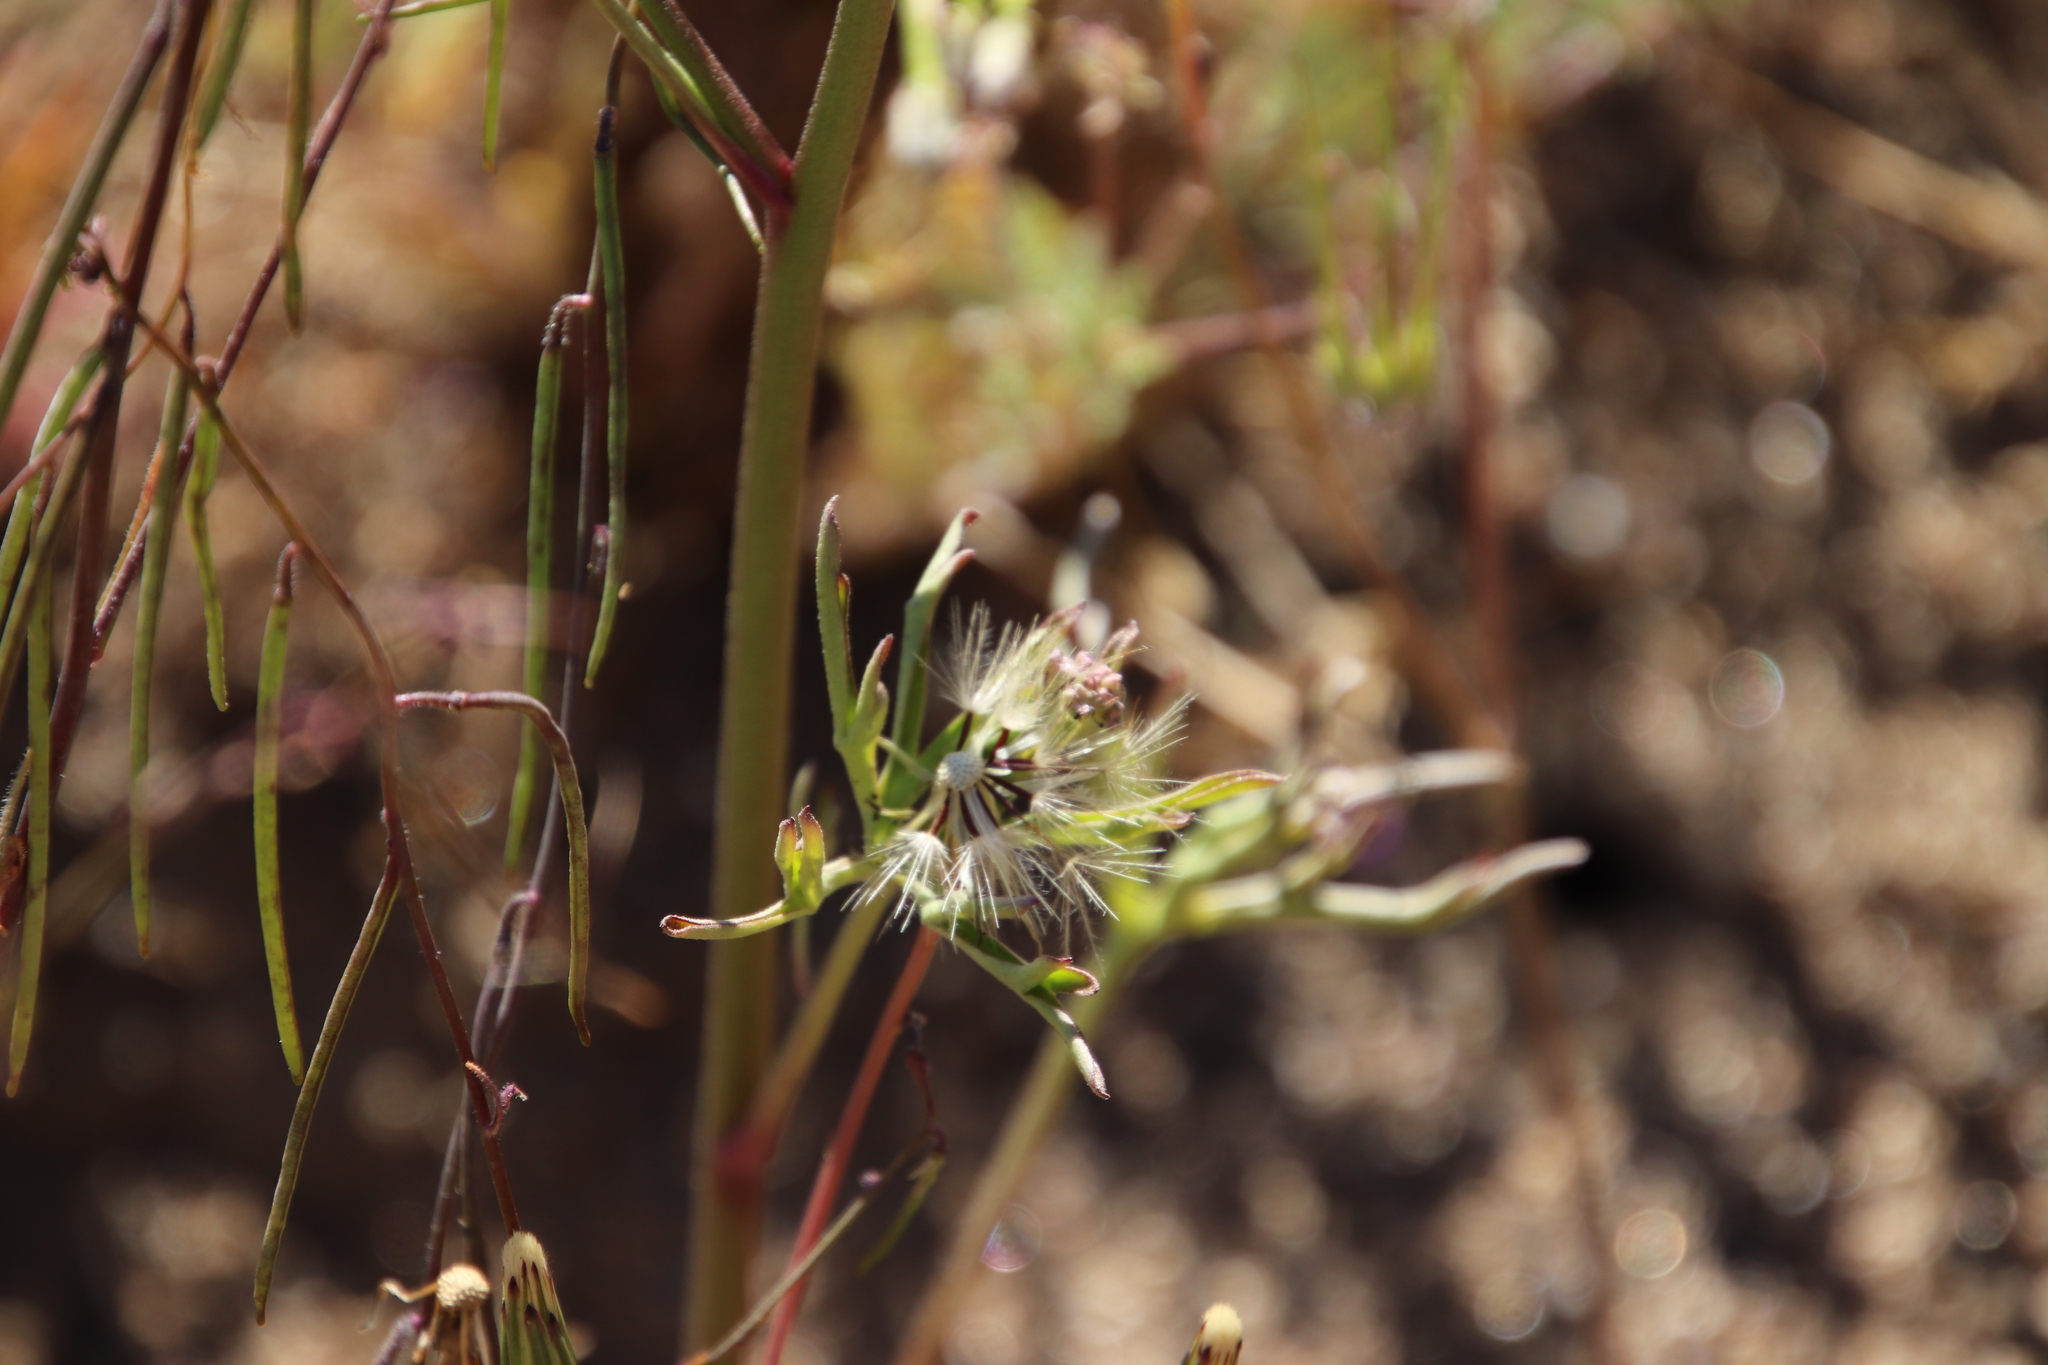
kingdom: Plantae
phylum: Tracheophyta
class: Magnoliopsida
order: Ranunculales
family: Ranunculaceae
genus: Delphinium
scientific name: Delphinium parryi
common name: Parry's larkspur
